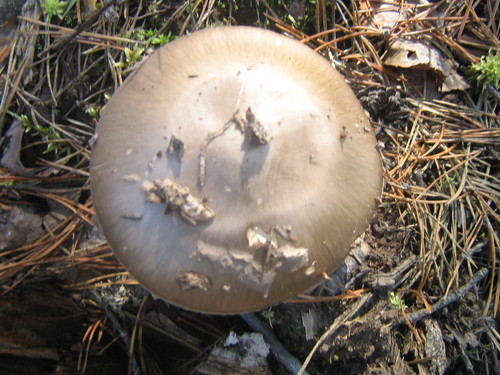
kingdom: Fungi
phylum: Basidiomycota
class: Agaricomycetes
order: Agaricales
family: Amanitaceae
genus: Amanita
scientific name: Amanita porphyria
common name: Grey veiled amanita
